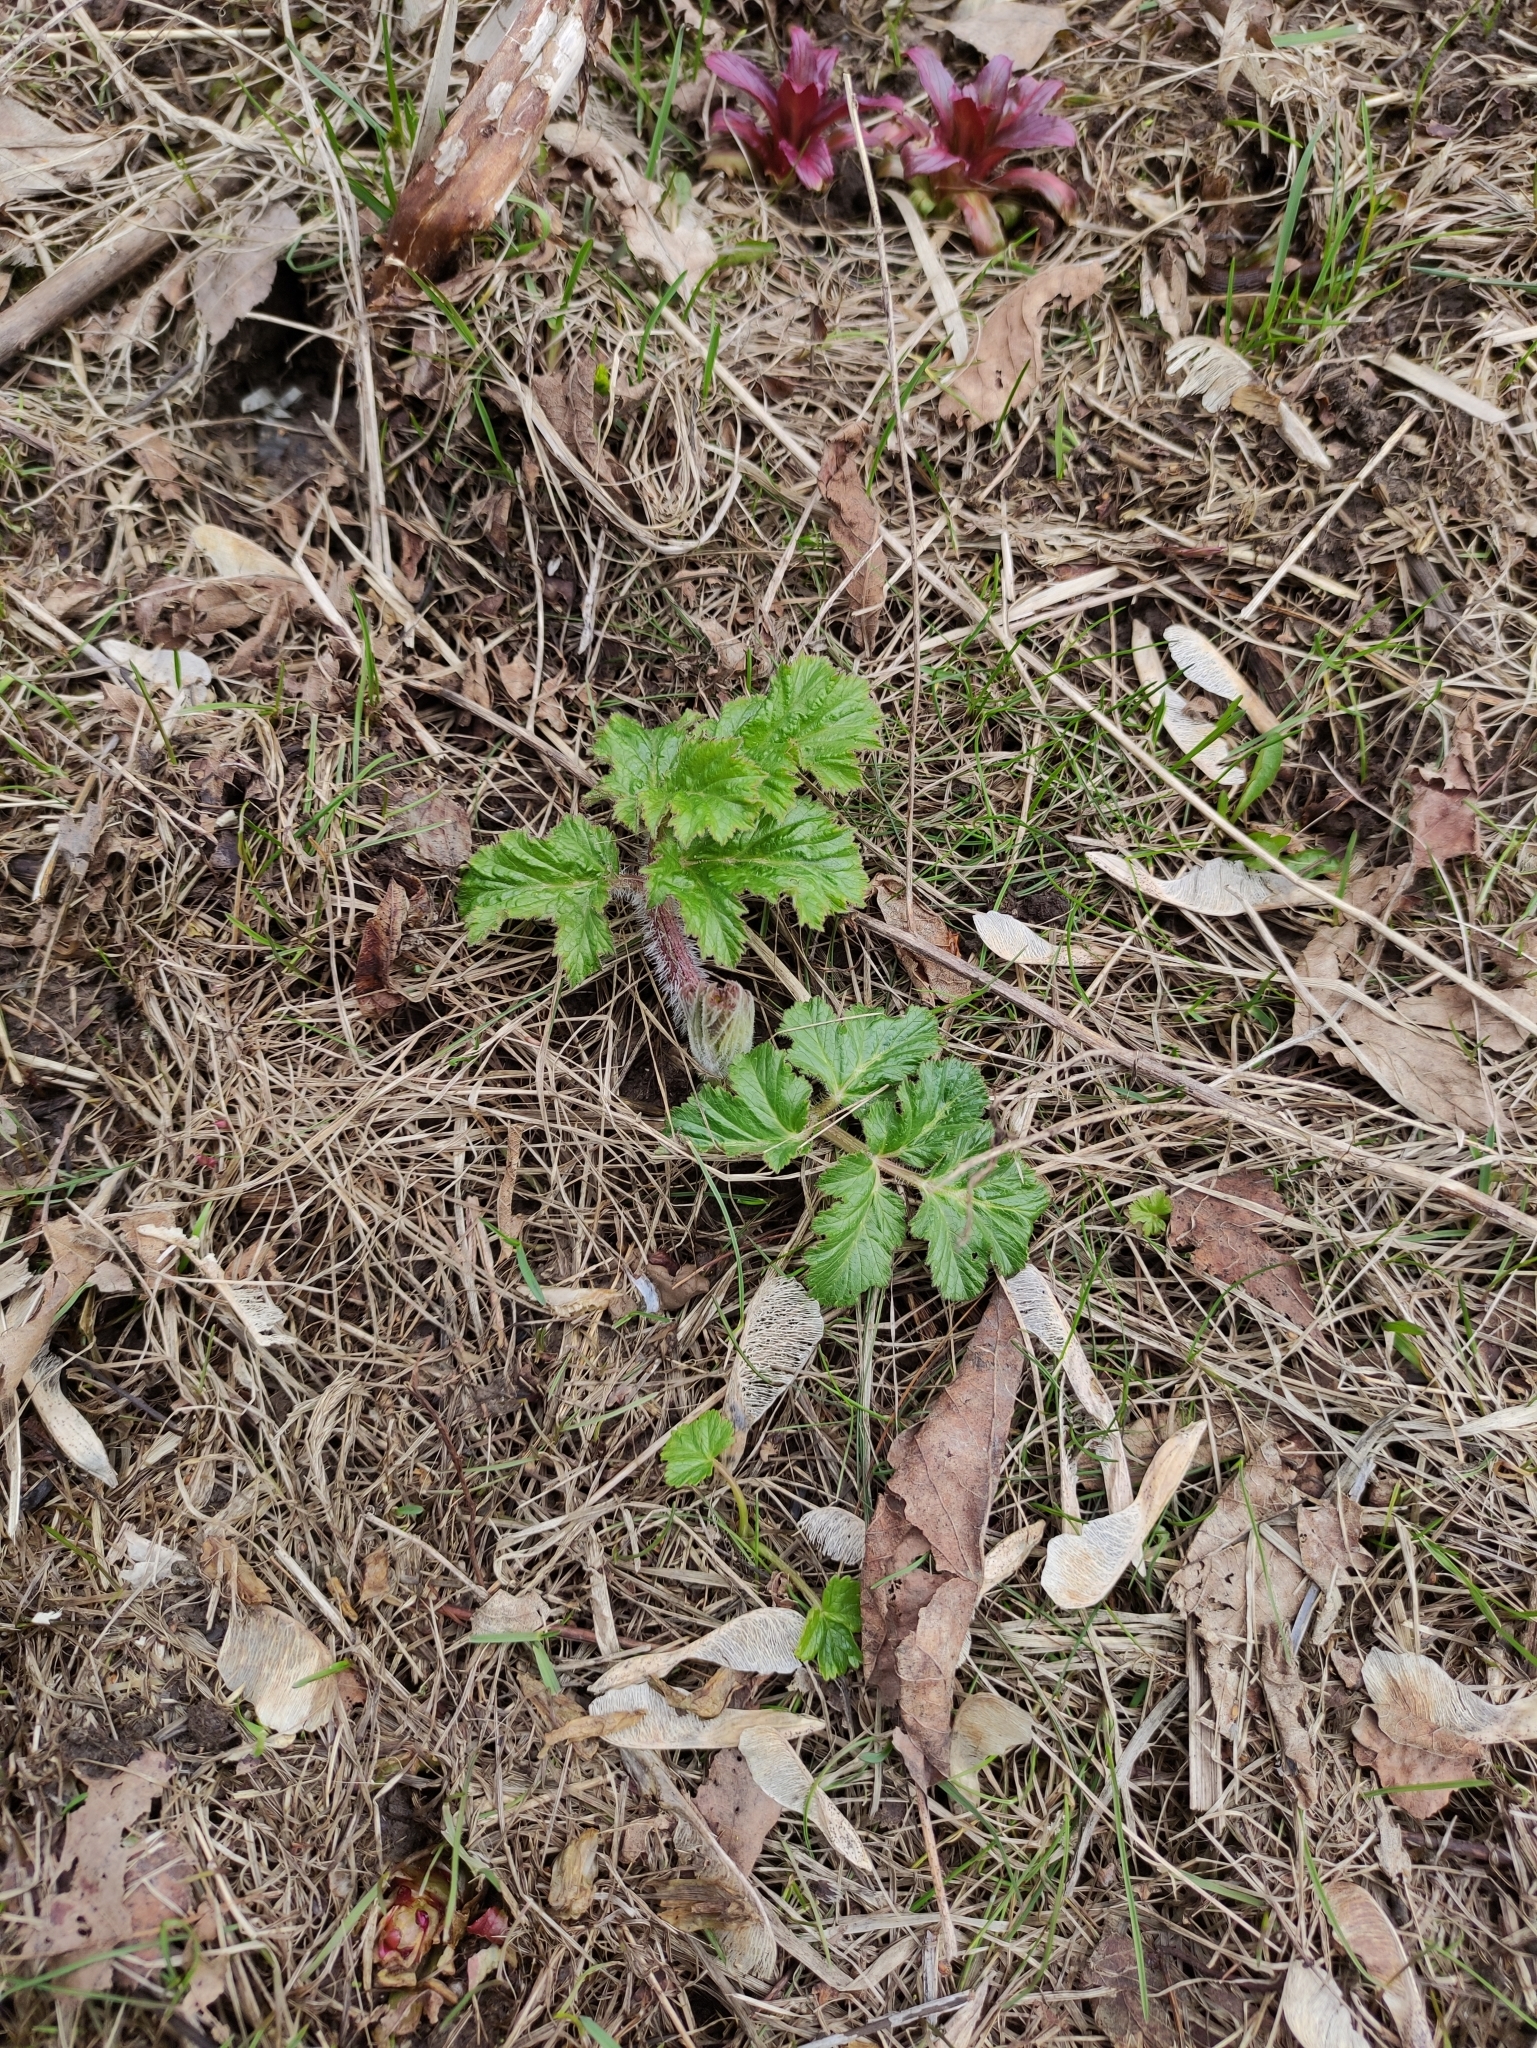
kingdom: Plantae
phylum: Tracheophyta
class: Magnoliopsida
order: Apiales
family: Apiaceae
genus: Heracleum
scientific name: Heracleum sosnowskyi
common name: Sosnowsky's hogweed
